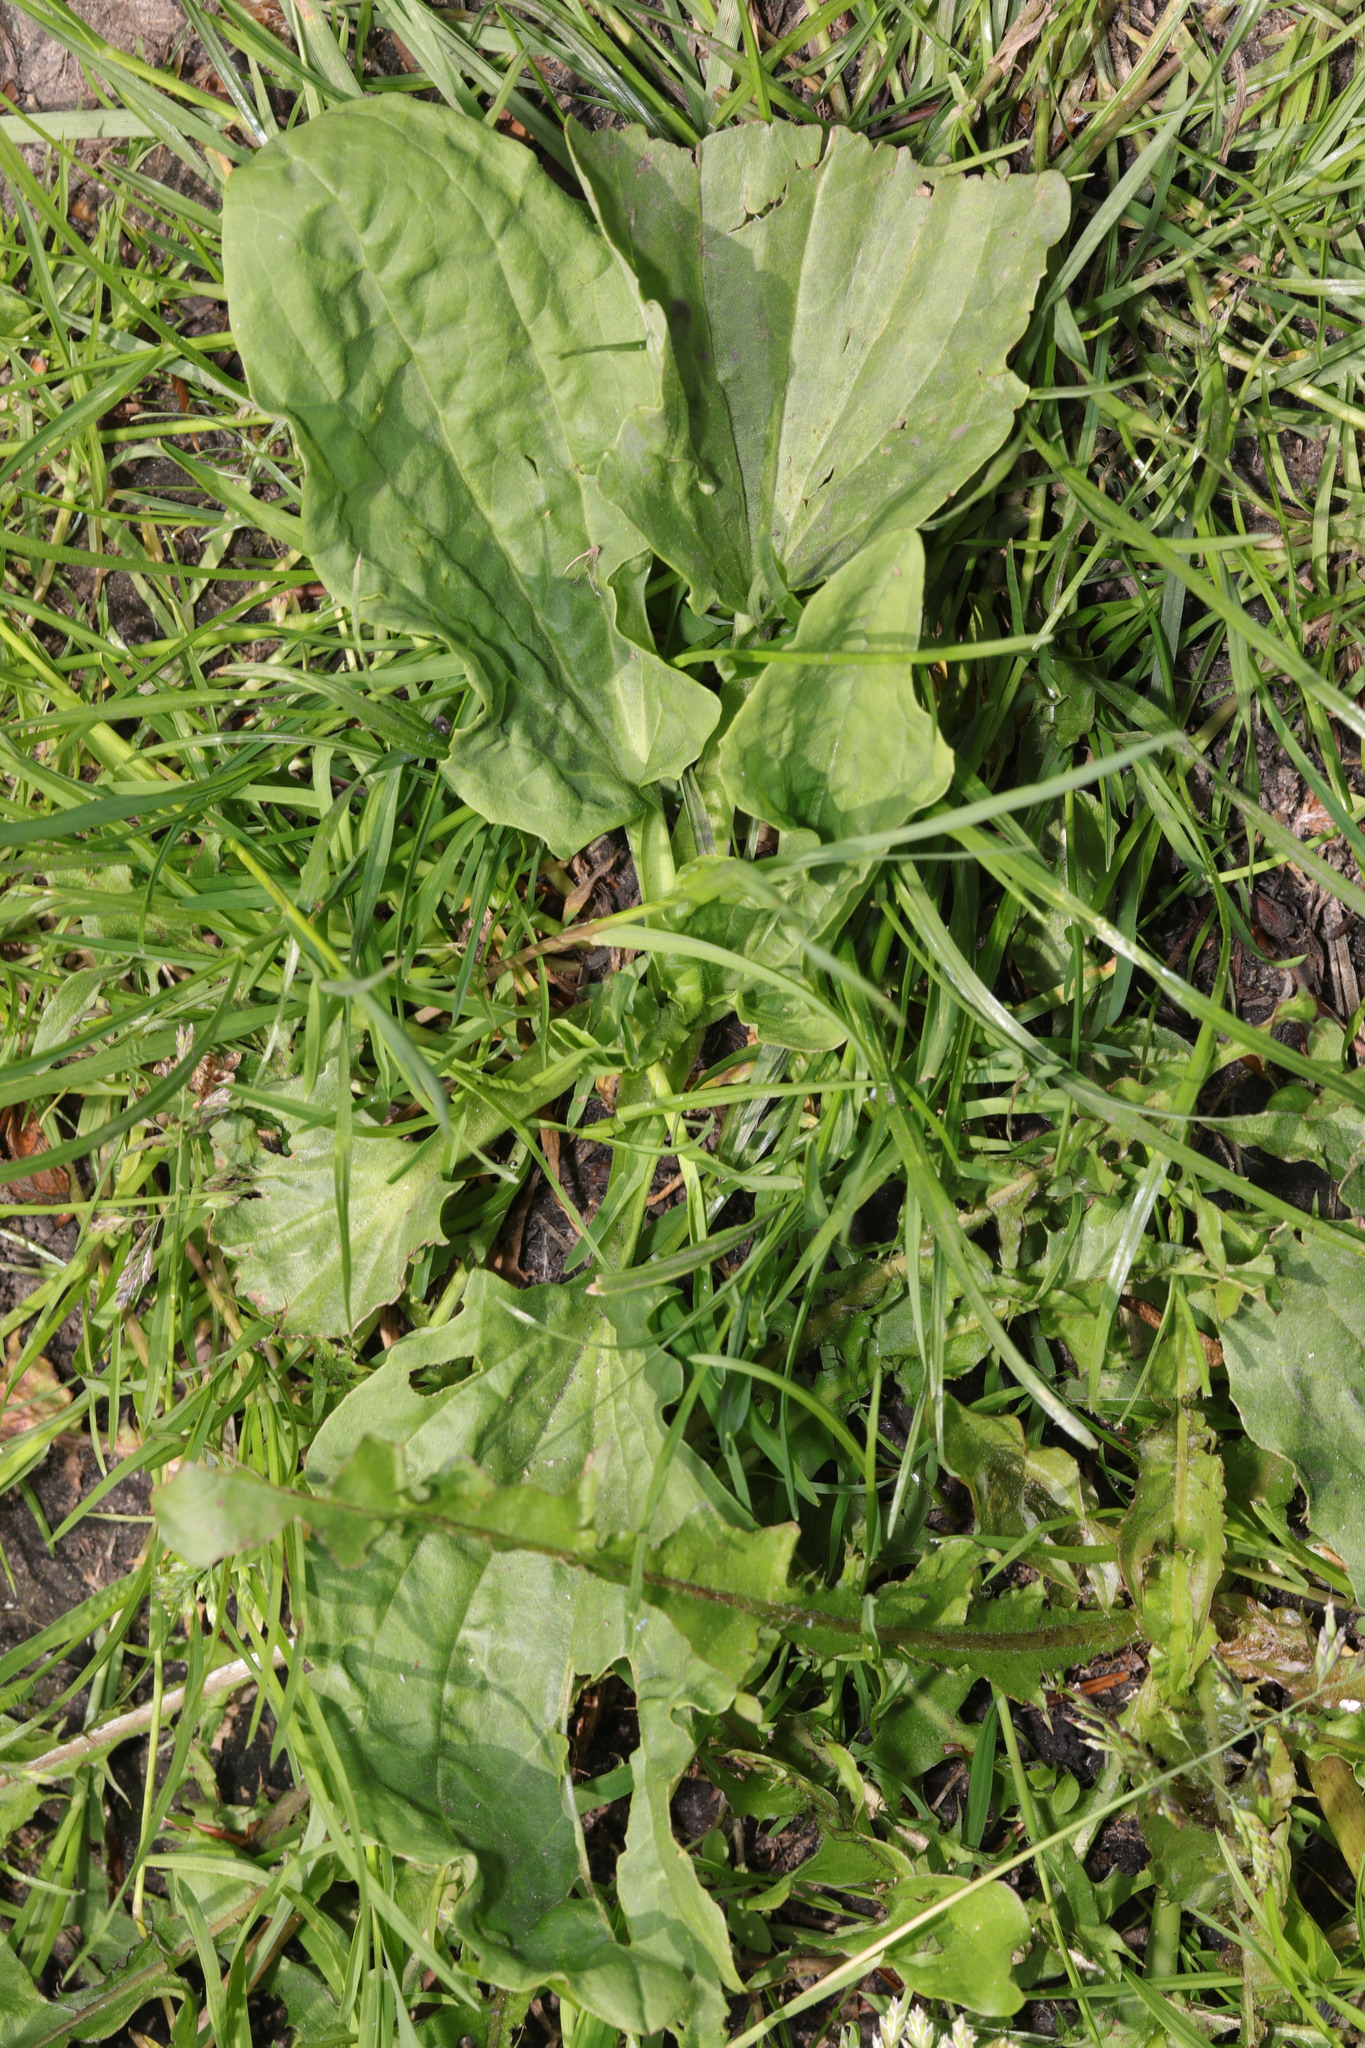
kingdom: Plantae
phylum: Tracheophyta
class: Magnoliopsida
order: Lamiales
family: Plantaginaceae
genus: Plantago
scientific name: Plantago major
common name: Common plantain
